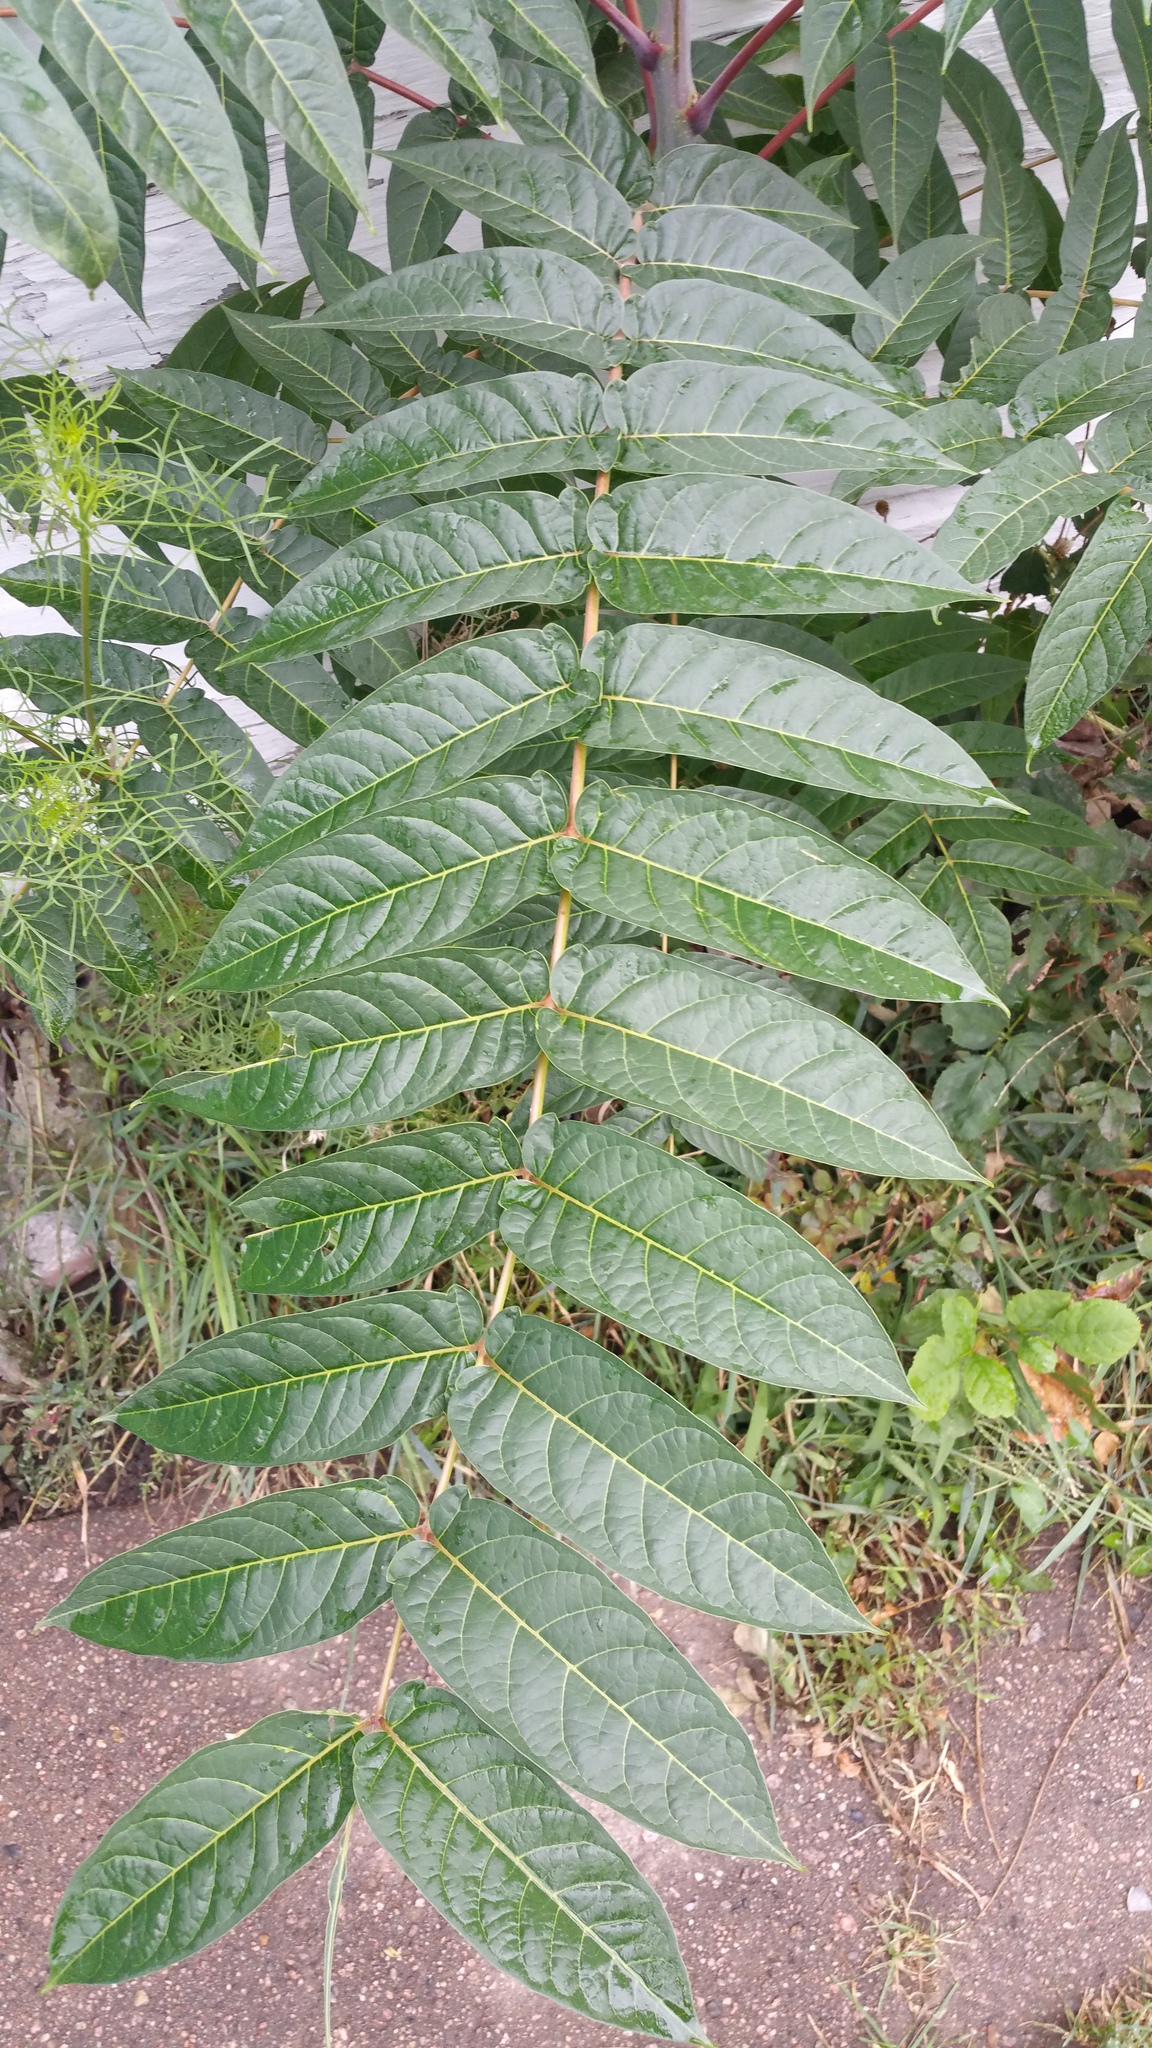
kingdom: Plantae
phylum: Tracheophyta
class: Magnoliopsida
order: Sapindales
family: Simaroubaceae
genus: Ailanthus
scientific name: Ailanthus altissima
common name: Tree-of-heaven
